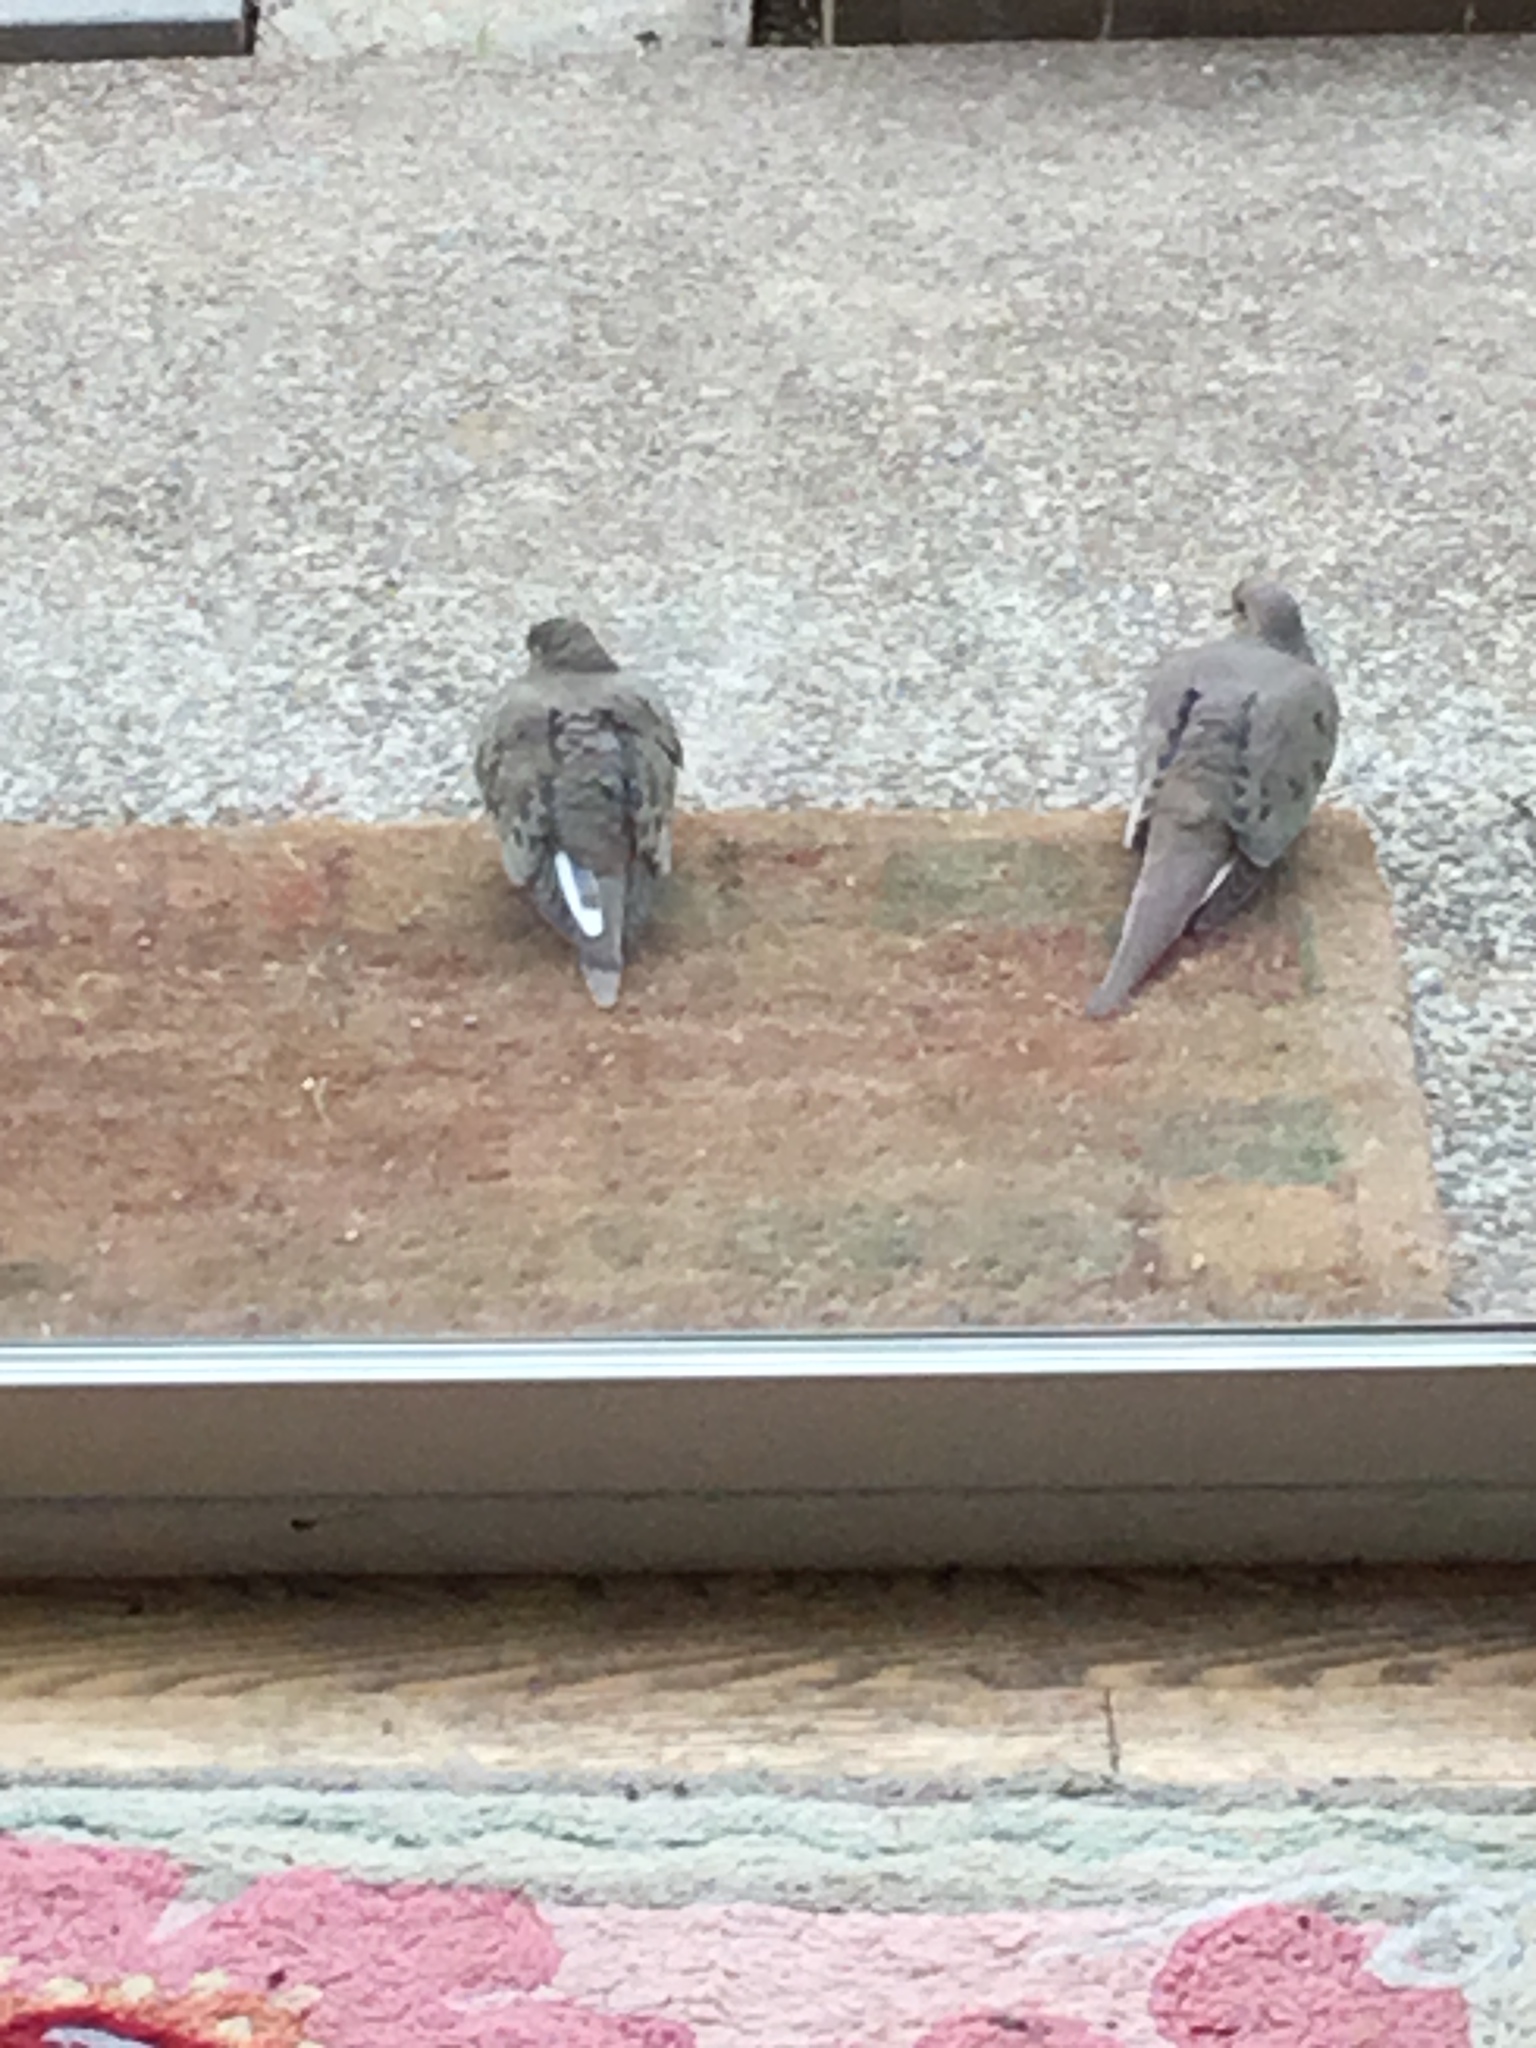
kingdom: Animalia
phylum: Chordata
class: Aves
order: Columbiformes
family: Columbidae
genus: Zenaida
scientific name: Zenaida macroura
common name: Mourning dove
